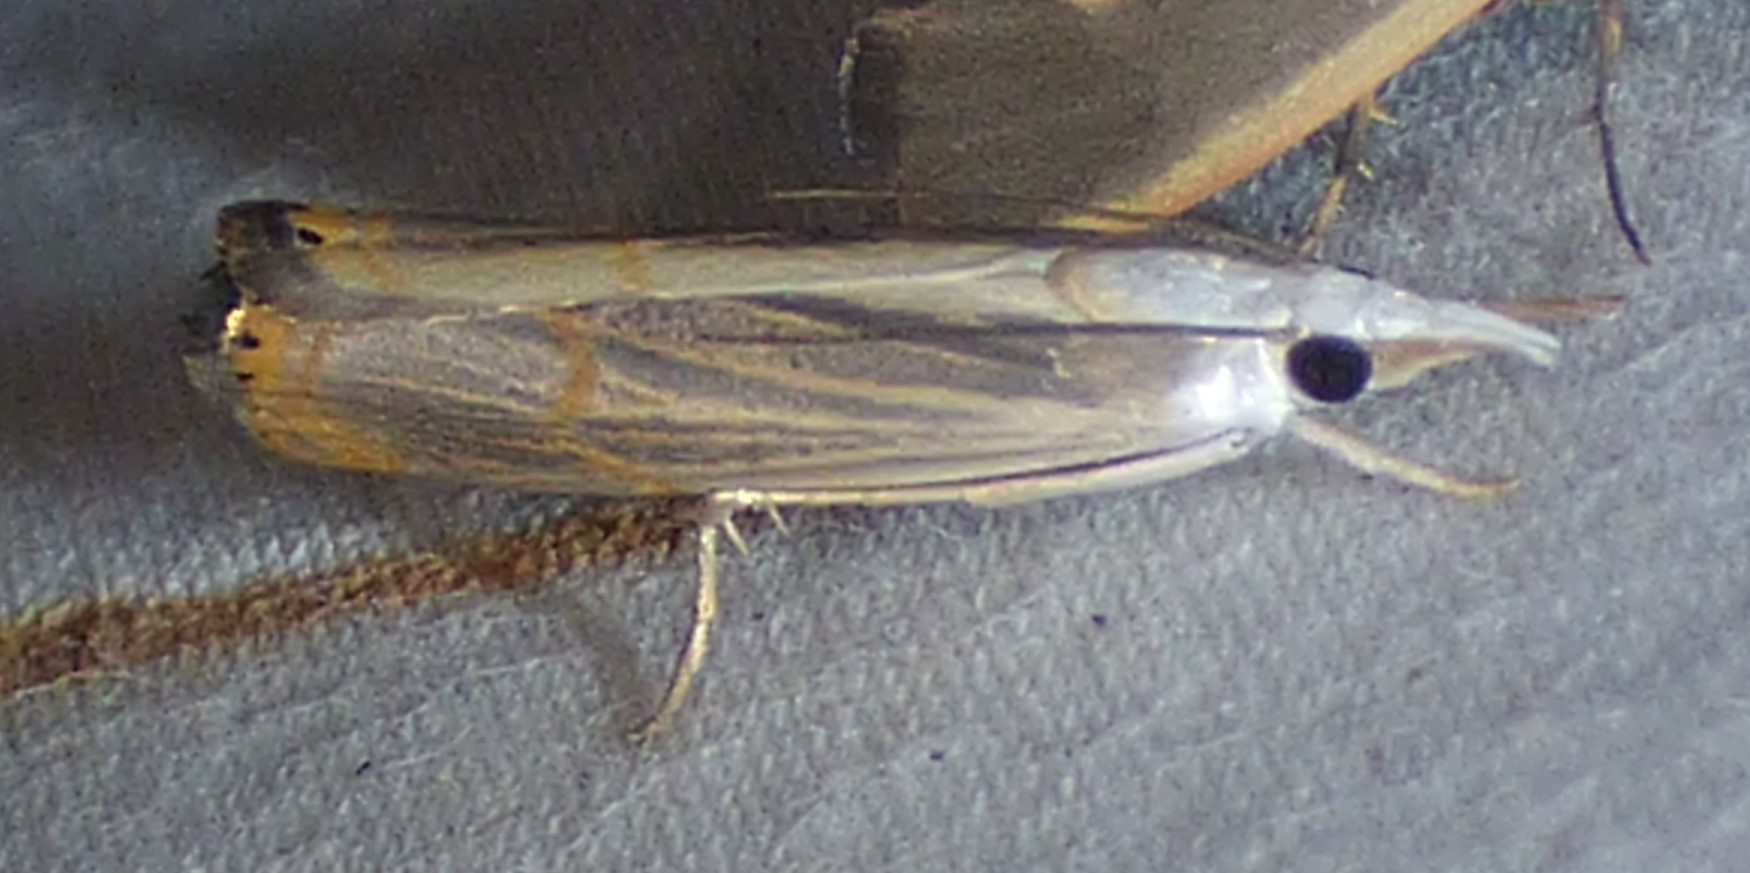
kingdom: Animalia
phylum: Arthropoda
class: Insecta
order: Lepidoptera
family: Crambidae
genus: Parapediasia
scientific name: Parapediasia decorellus
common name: Graceful grass-veneer
